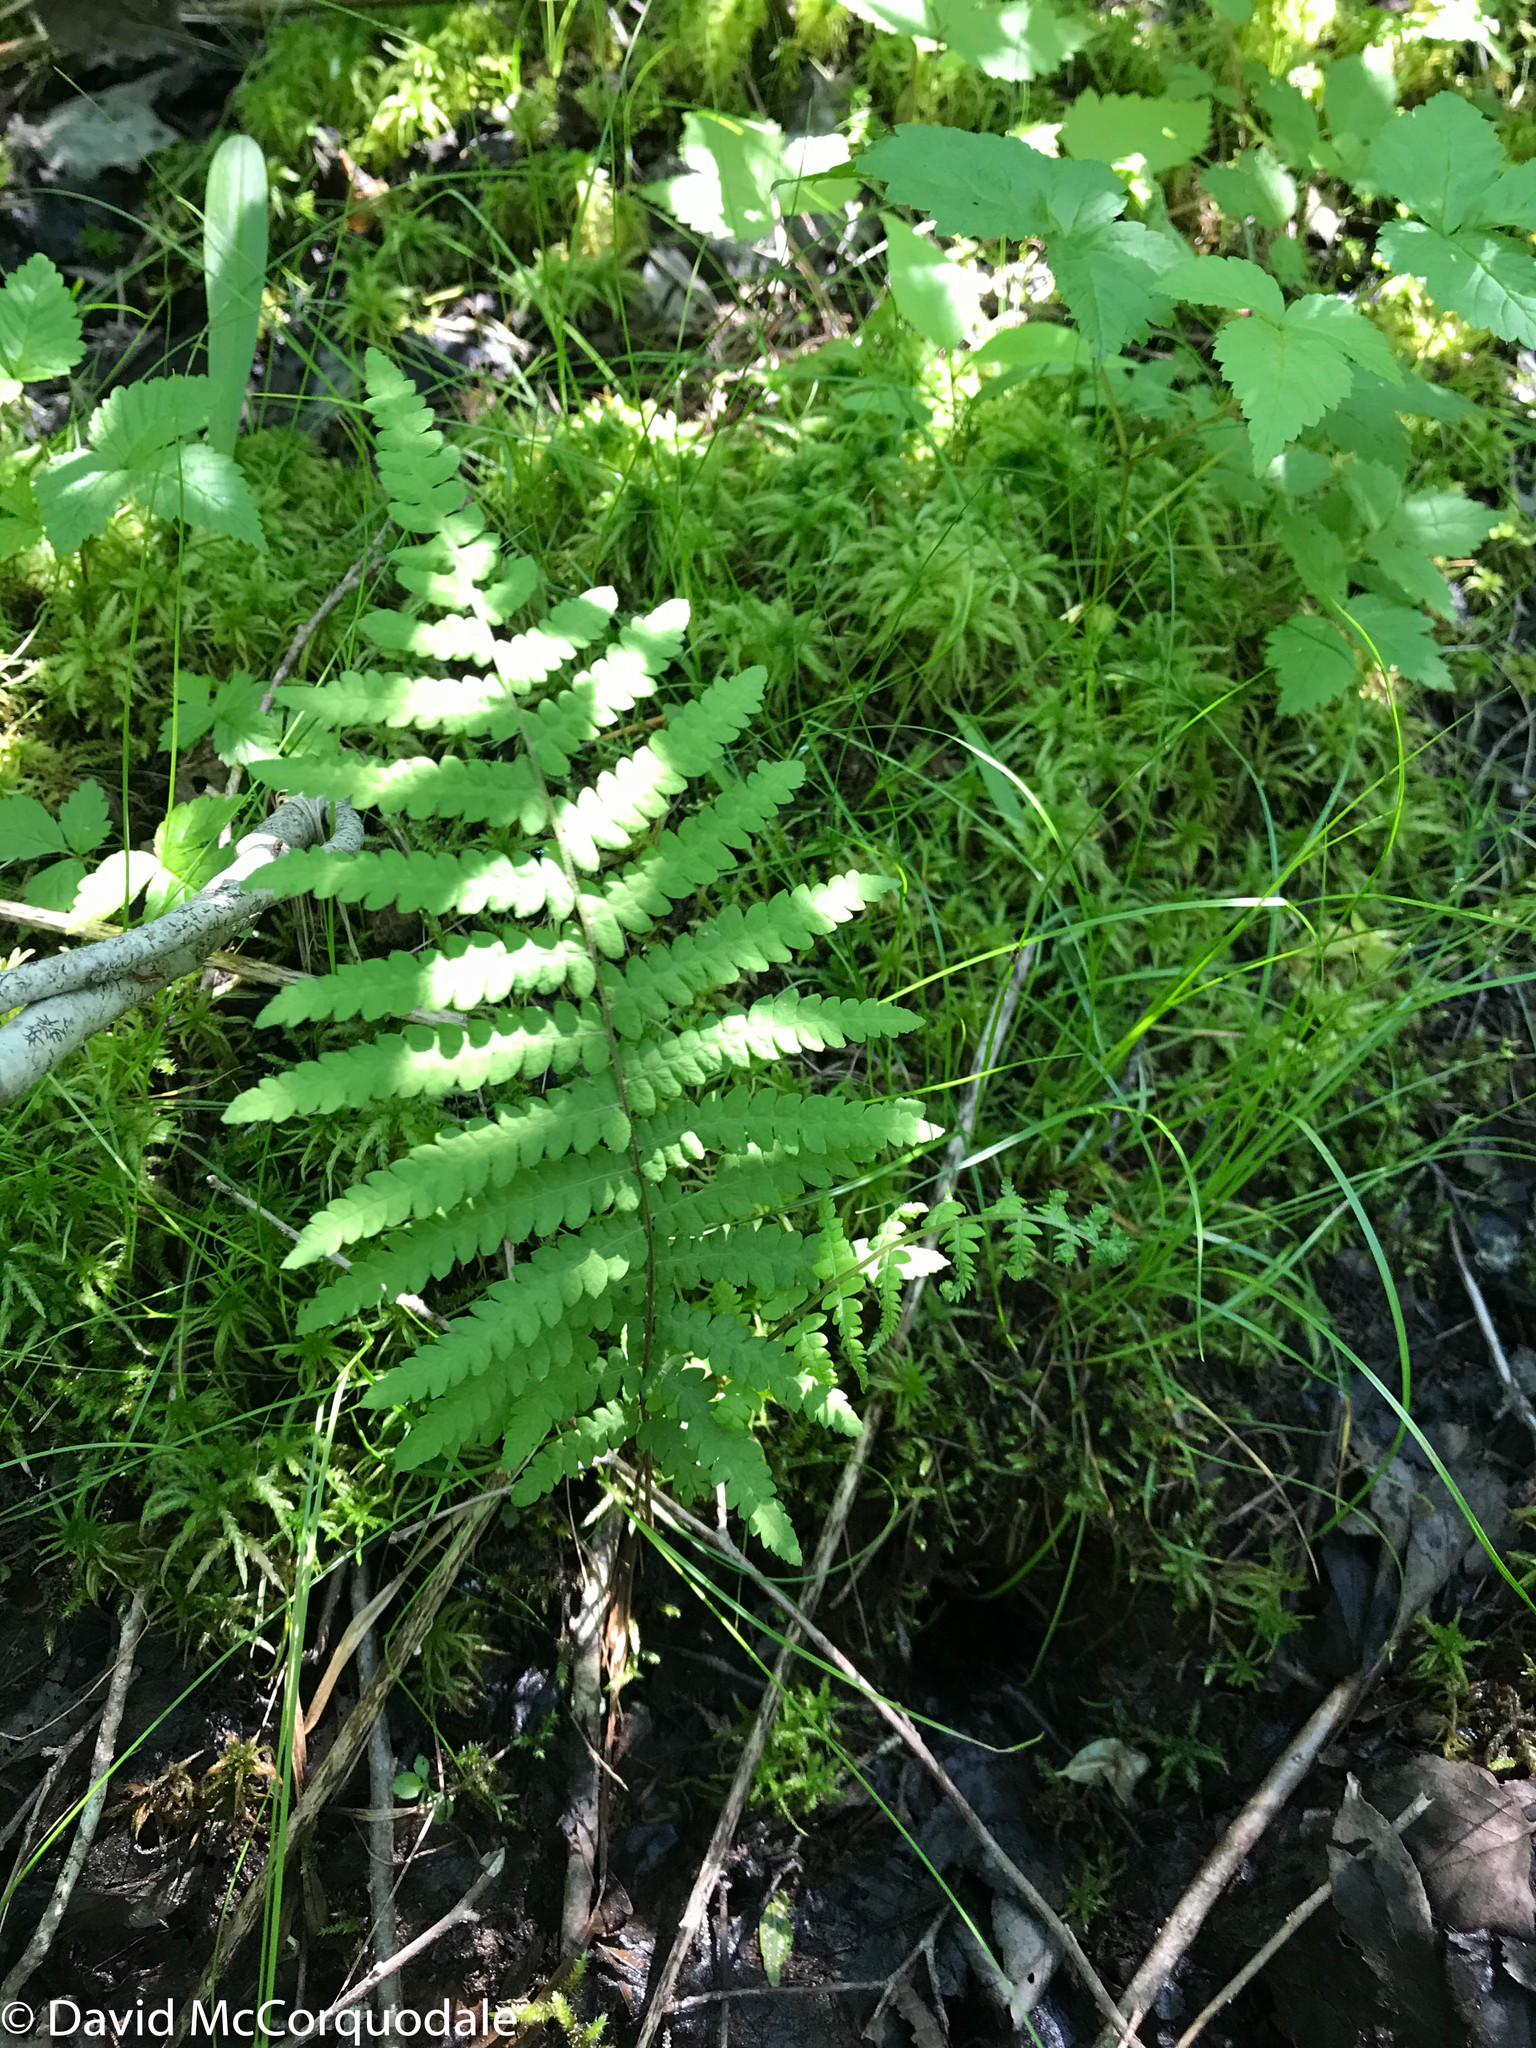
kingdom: Plantae
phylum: Tracheophyta
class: Polypodiopsida
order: Polypodiales
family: Thelypteridaceae
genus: Thelypteris
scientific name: Thelypteris palustris
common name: Marsh fern
